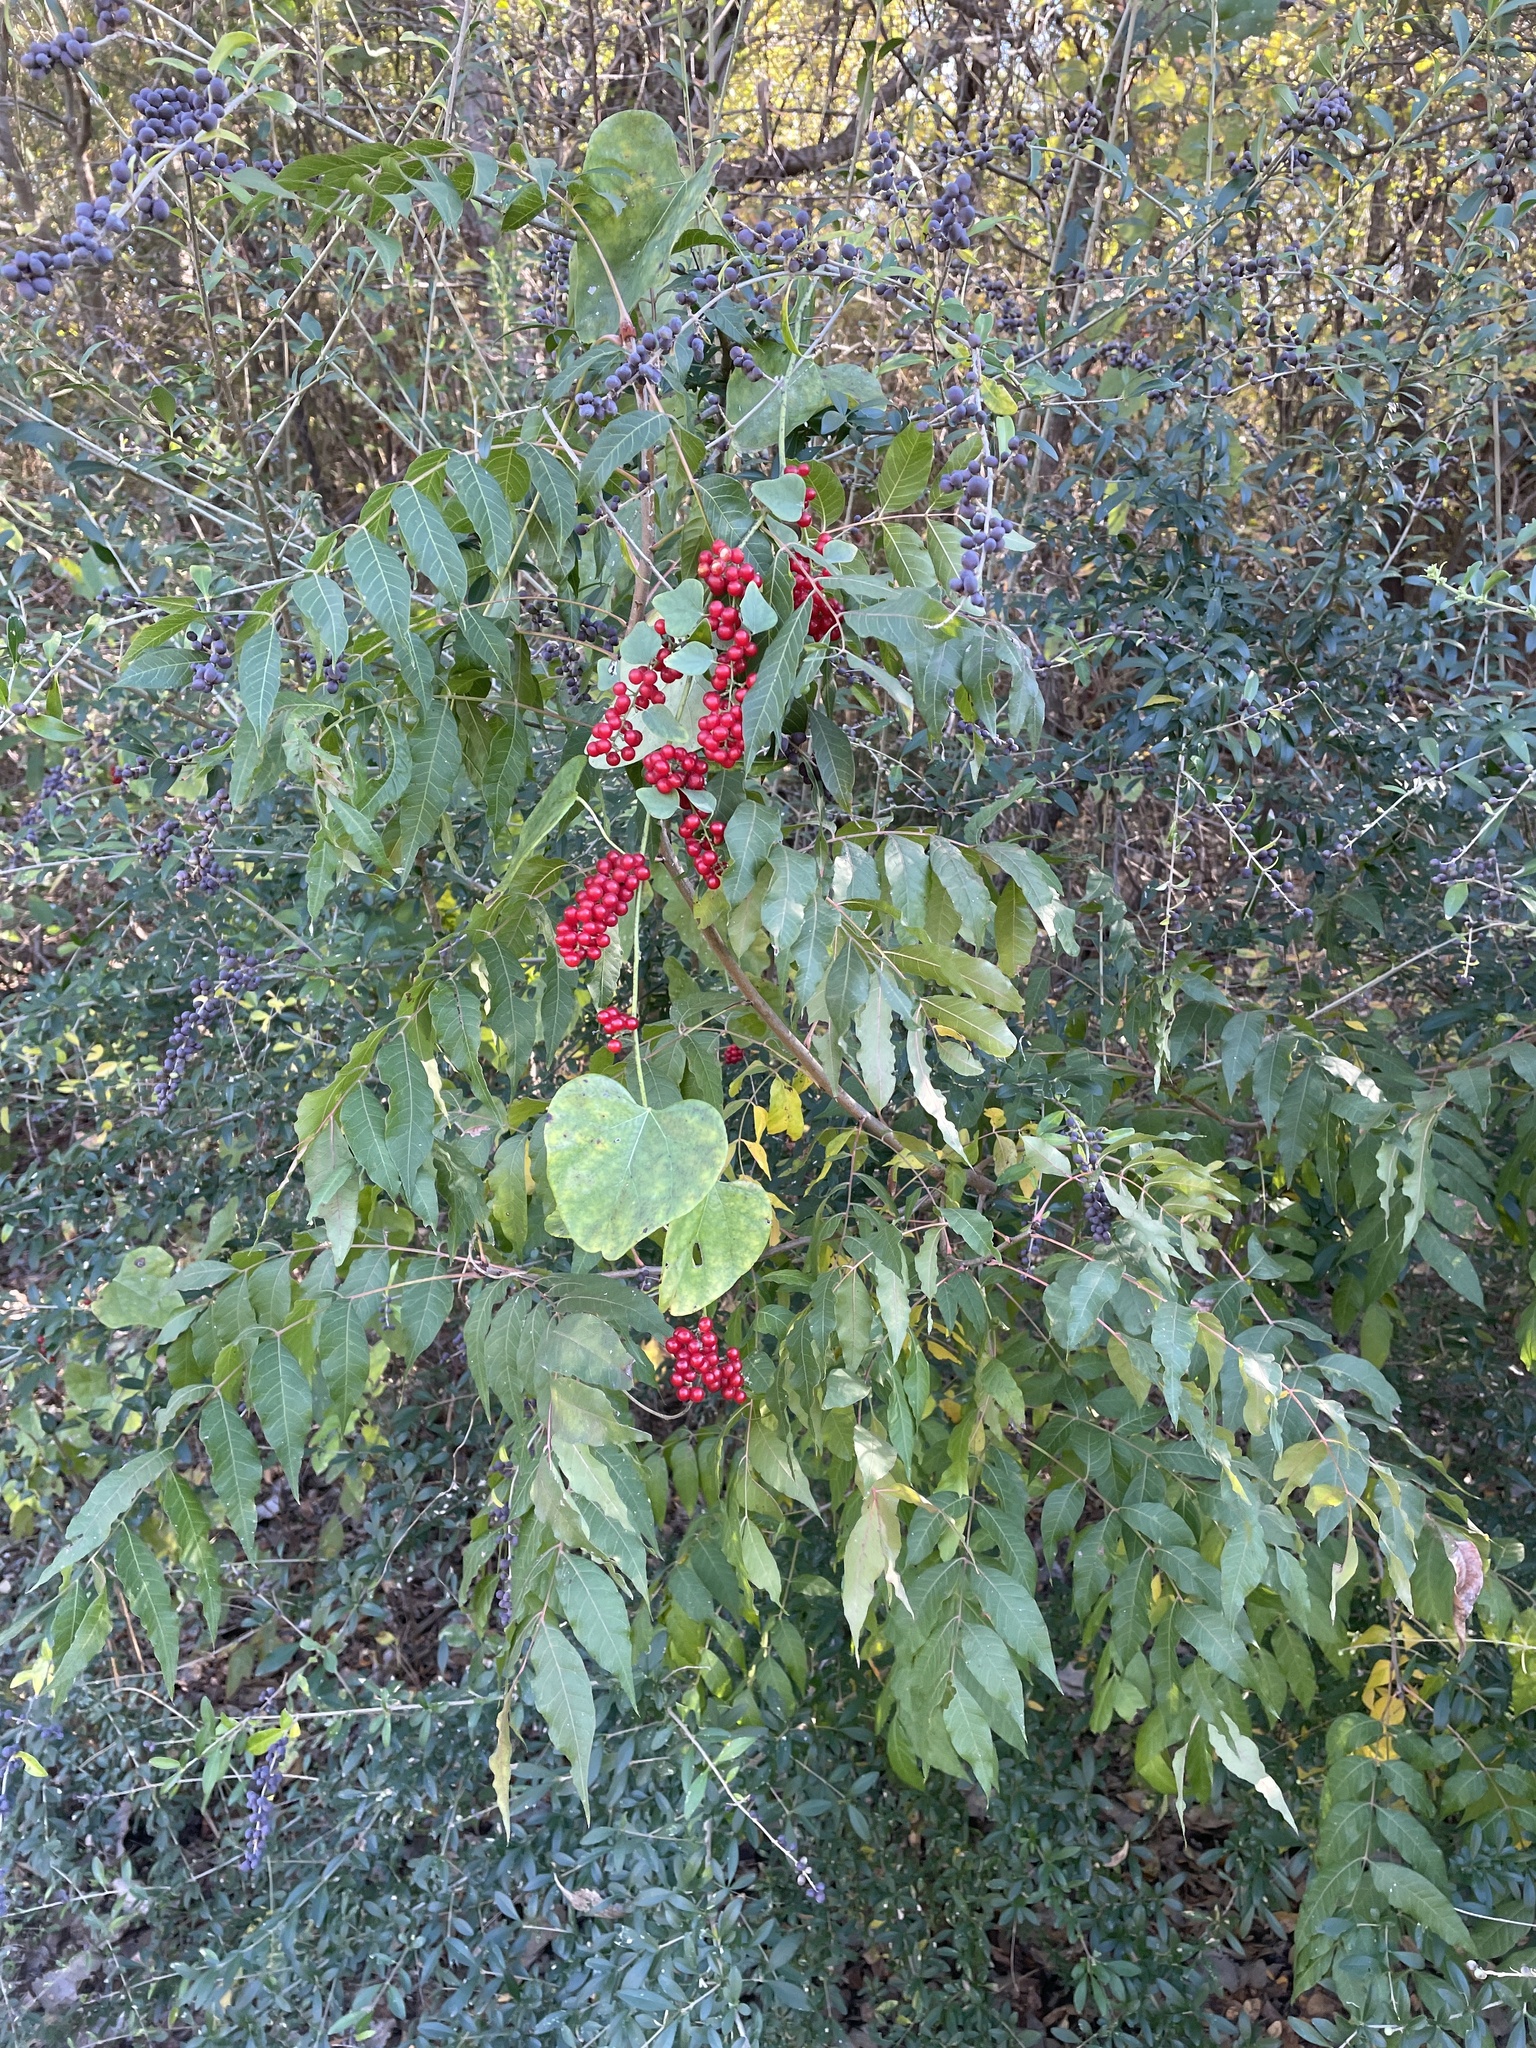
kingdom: Plantae
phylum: Tracheophyta
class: Magnoliopsida
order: Ranunculales
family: Menispermaceae
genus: Cocculus
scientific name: Cocculus carolinus
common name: Carolina moonseed
